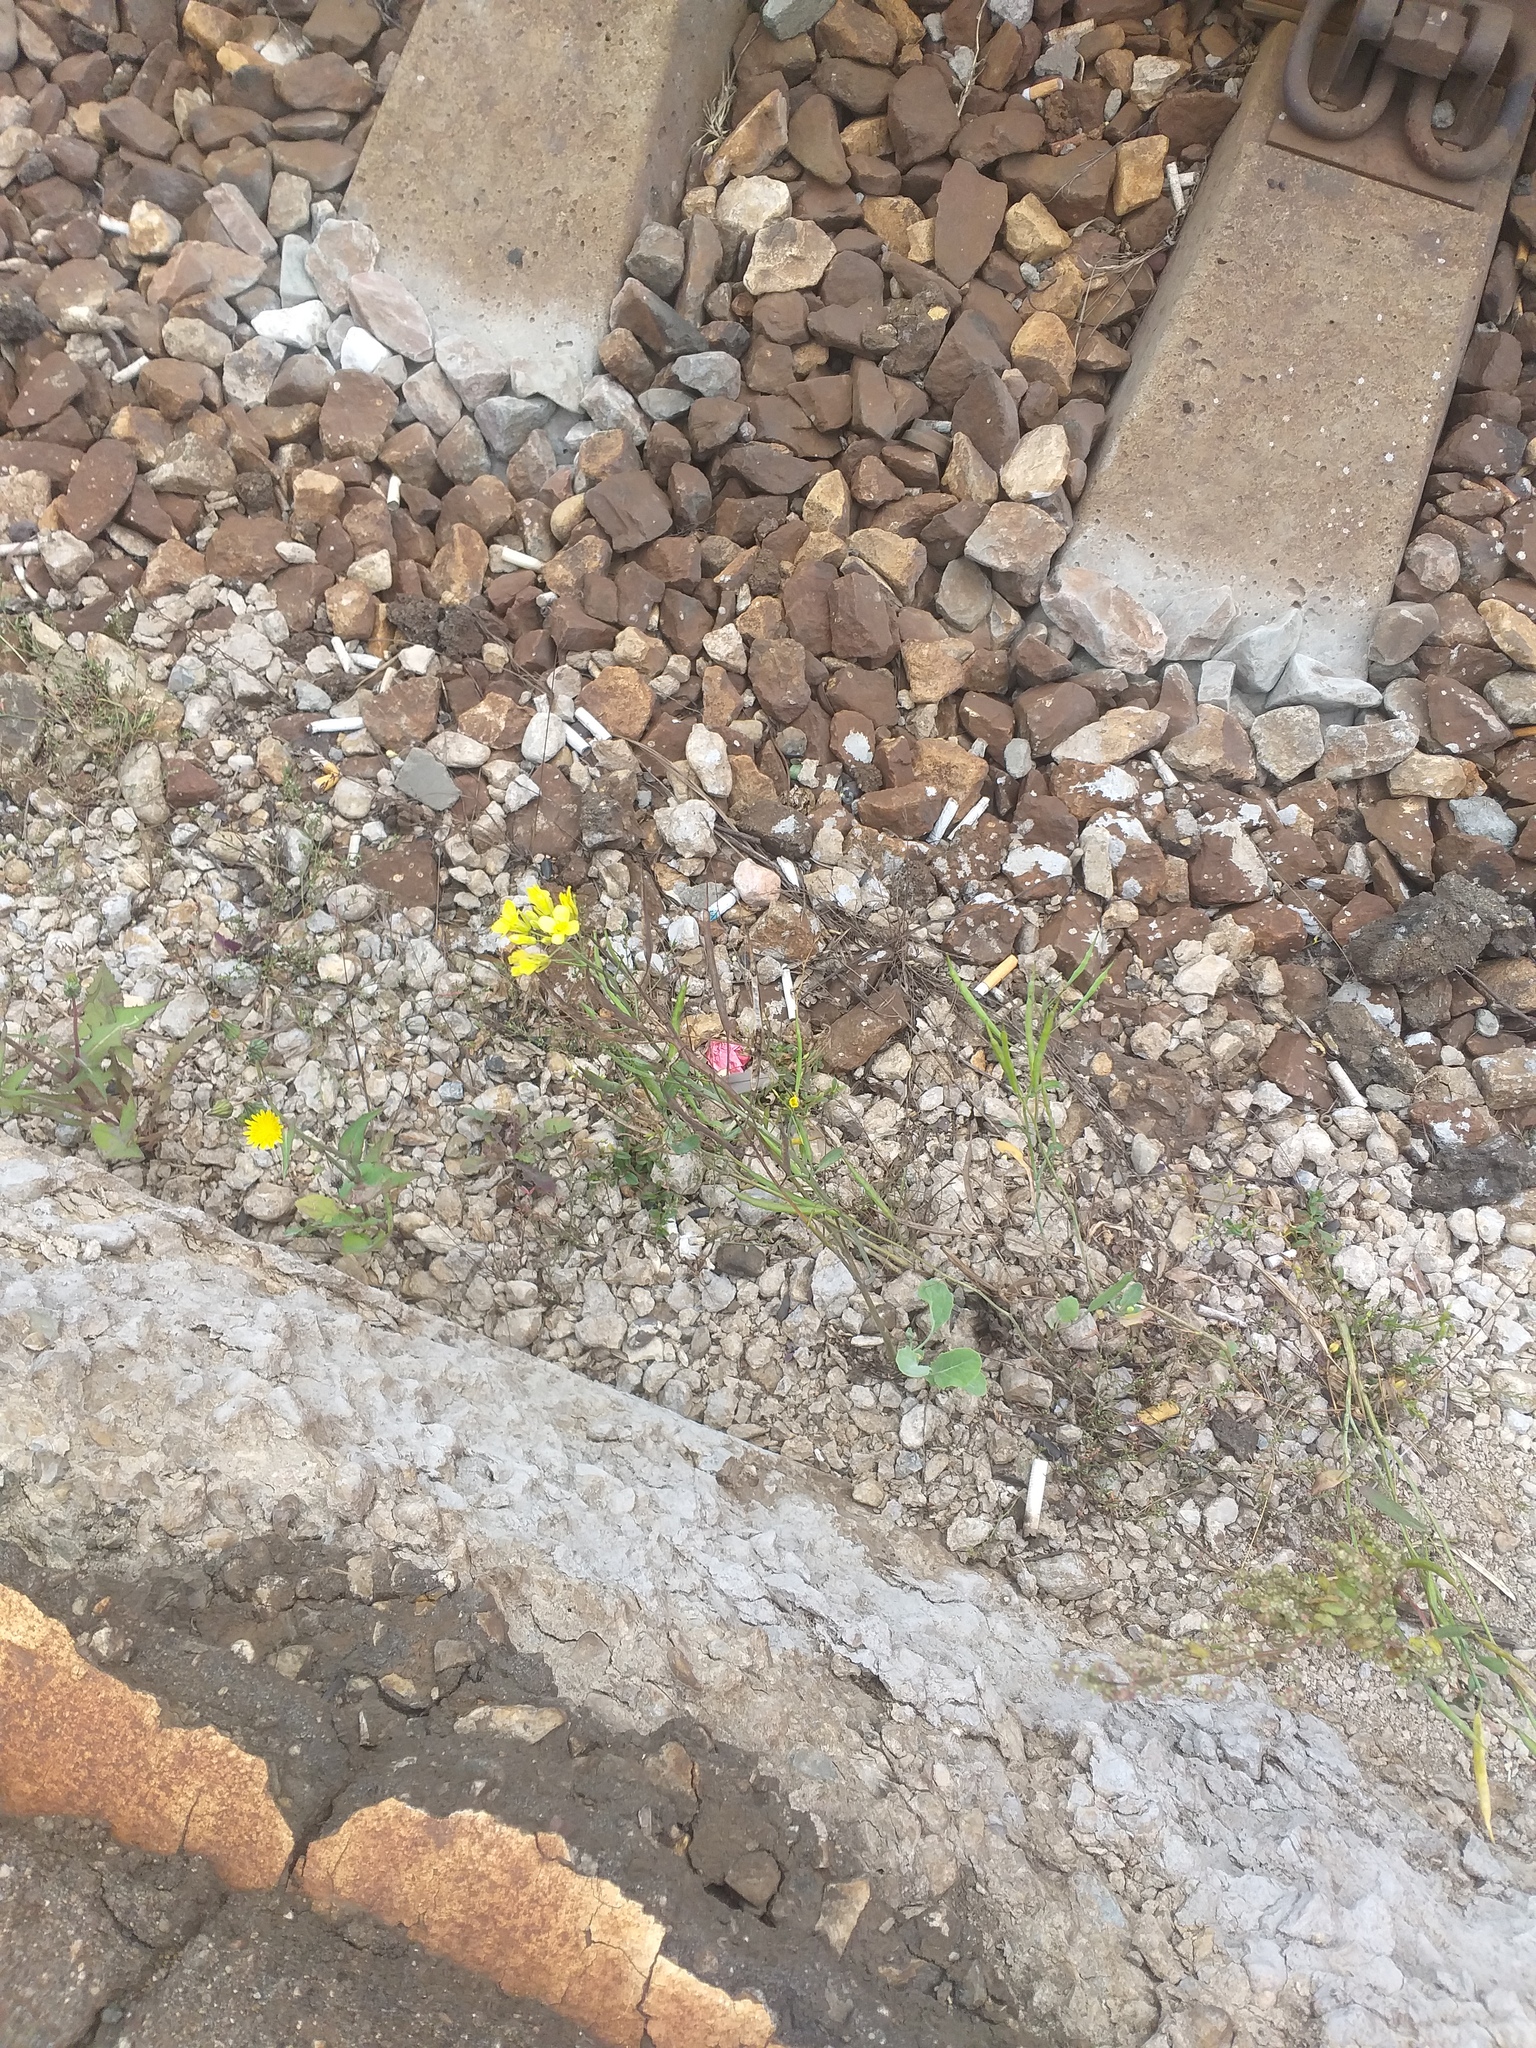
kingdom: Plantae
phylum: Tracheophyta
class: Magnoliopsida
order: Brassicales
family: Brassicaceae
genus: Brassica
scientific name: Brassica napus
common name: Rape
